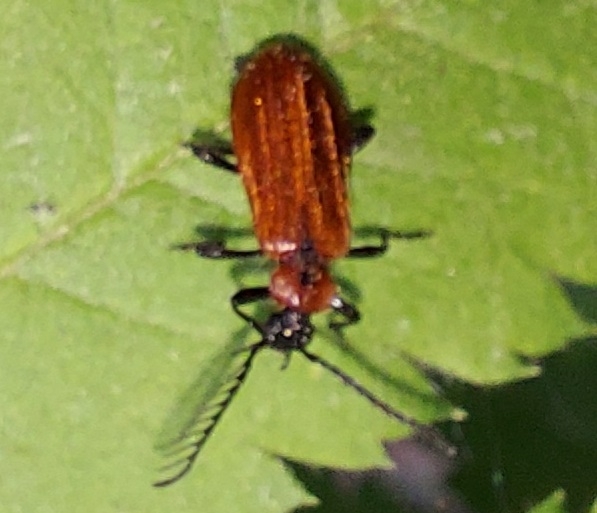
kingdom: Animalia
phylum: Arthropoda
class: Insecta
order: Coleoptera
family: Pyrochroidae
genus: Schizotus
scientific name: Schizotus pectinicornis
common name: Scarce cardinal beetle
